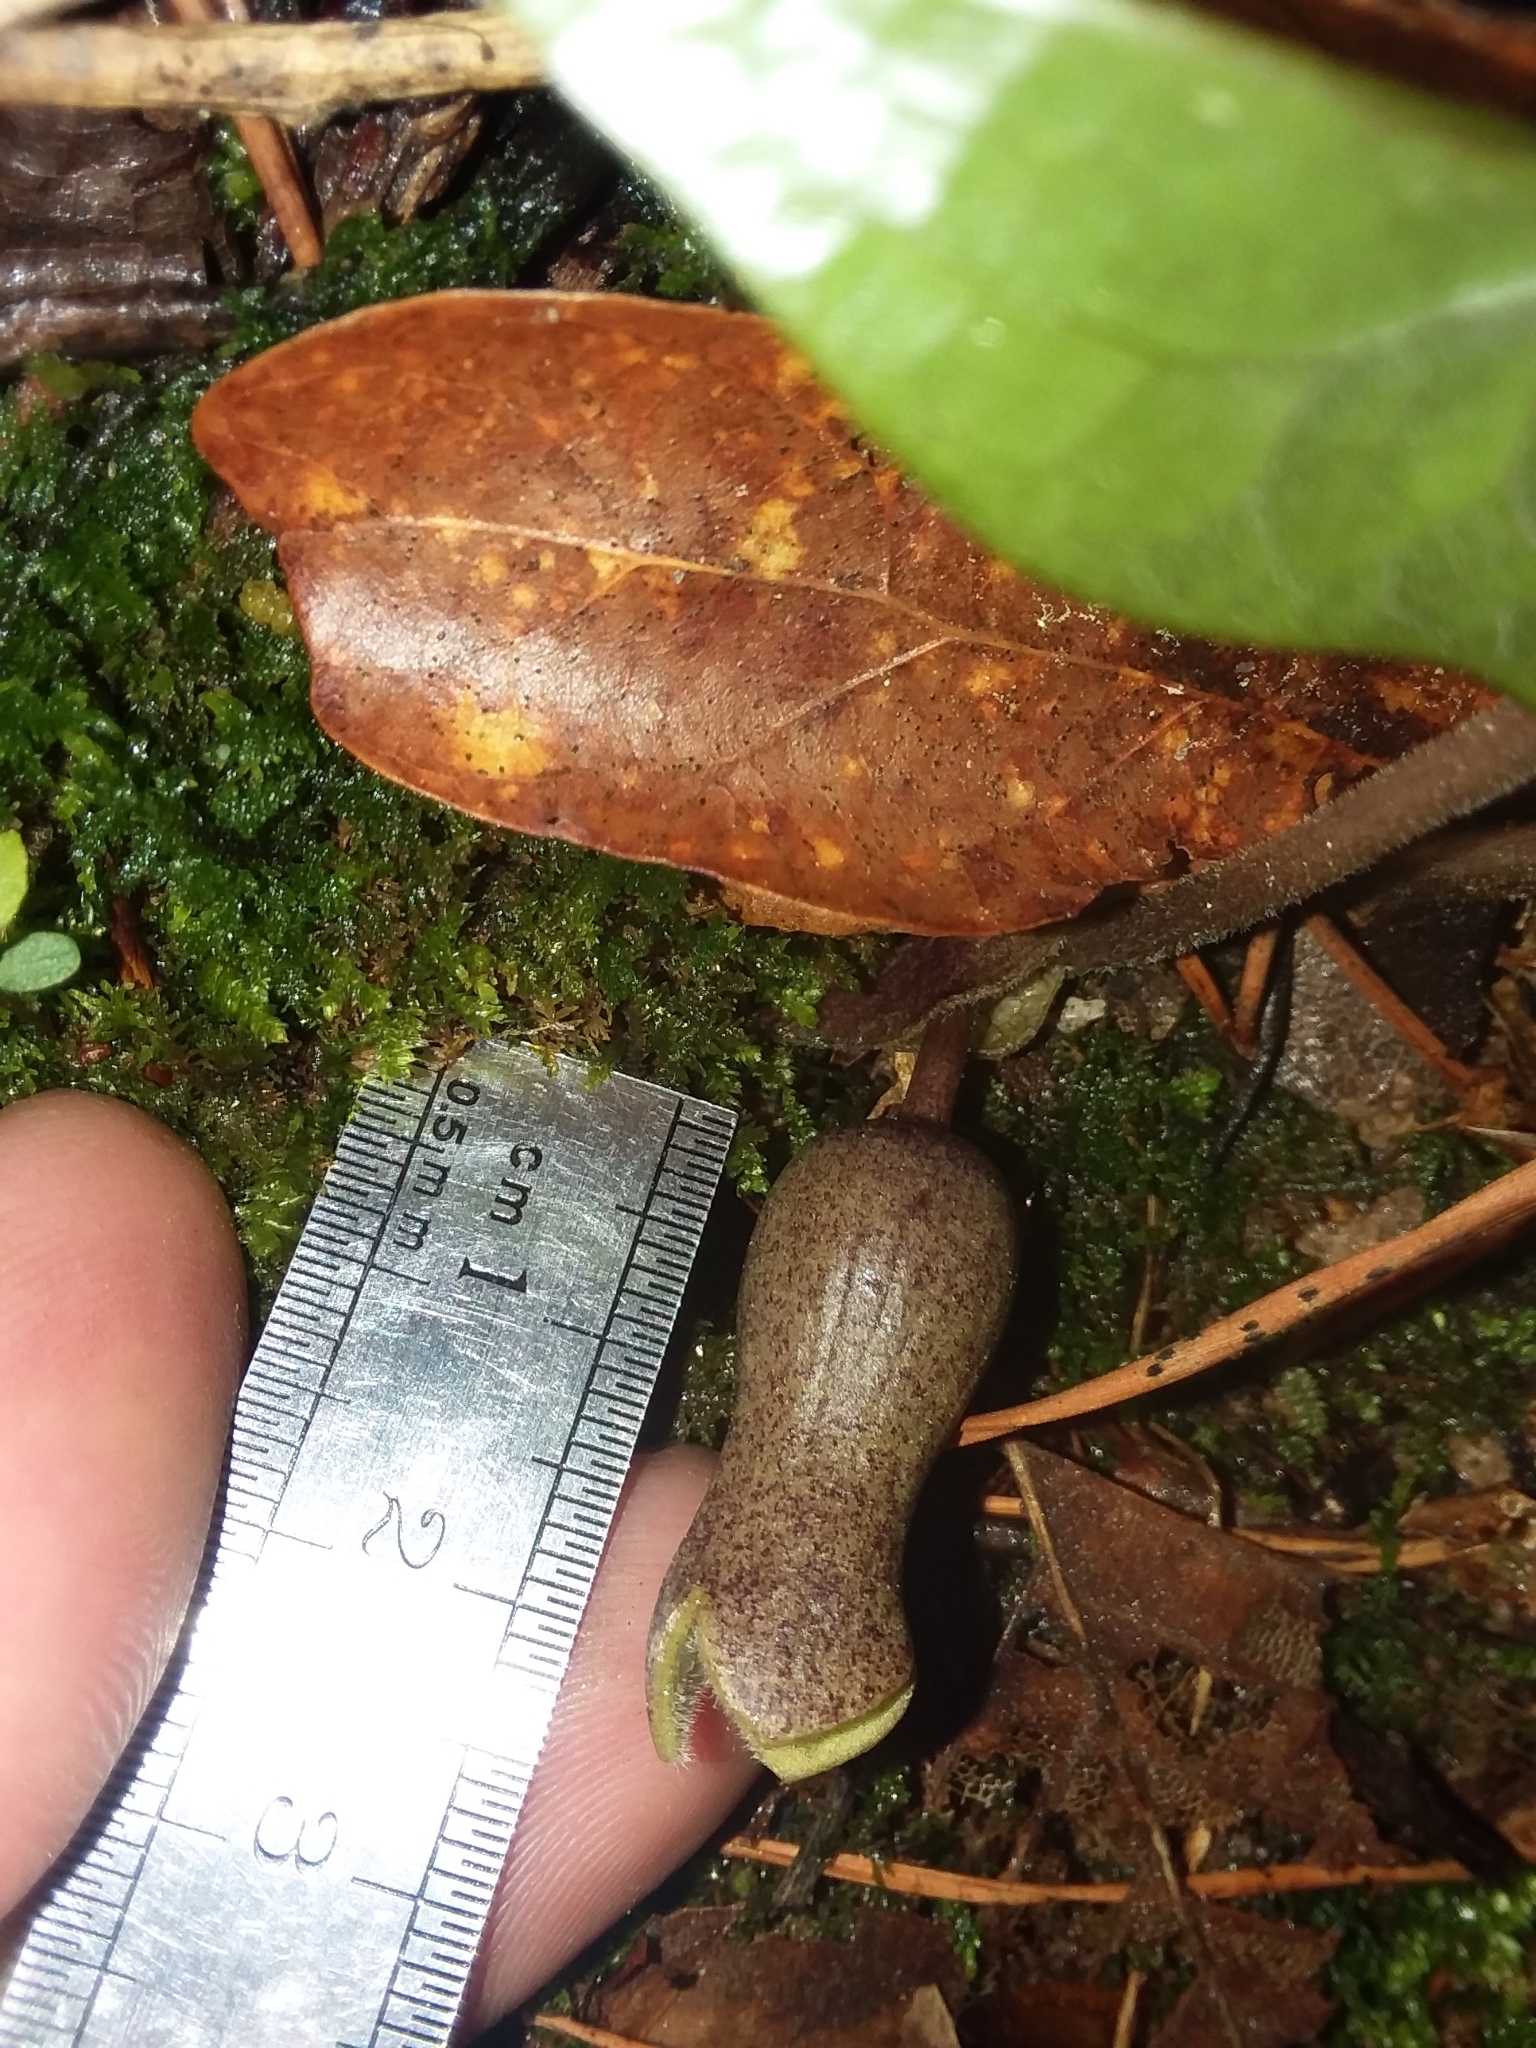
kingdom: Plantae
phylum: Tracheophyta
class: Magnoliopsida
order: Piperales
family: Aristolochiaceae
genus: Hexastylis
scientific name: Hexastylis arifolia
